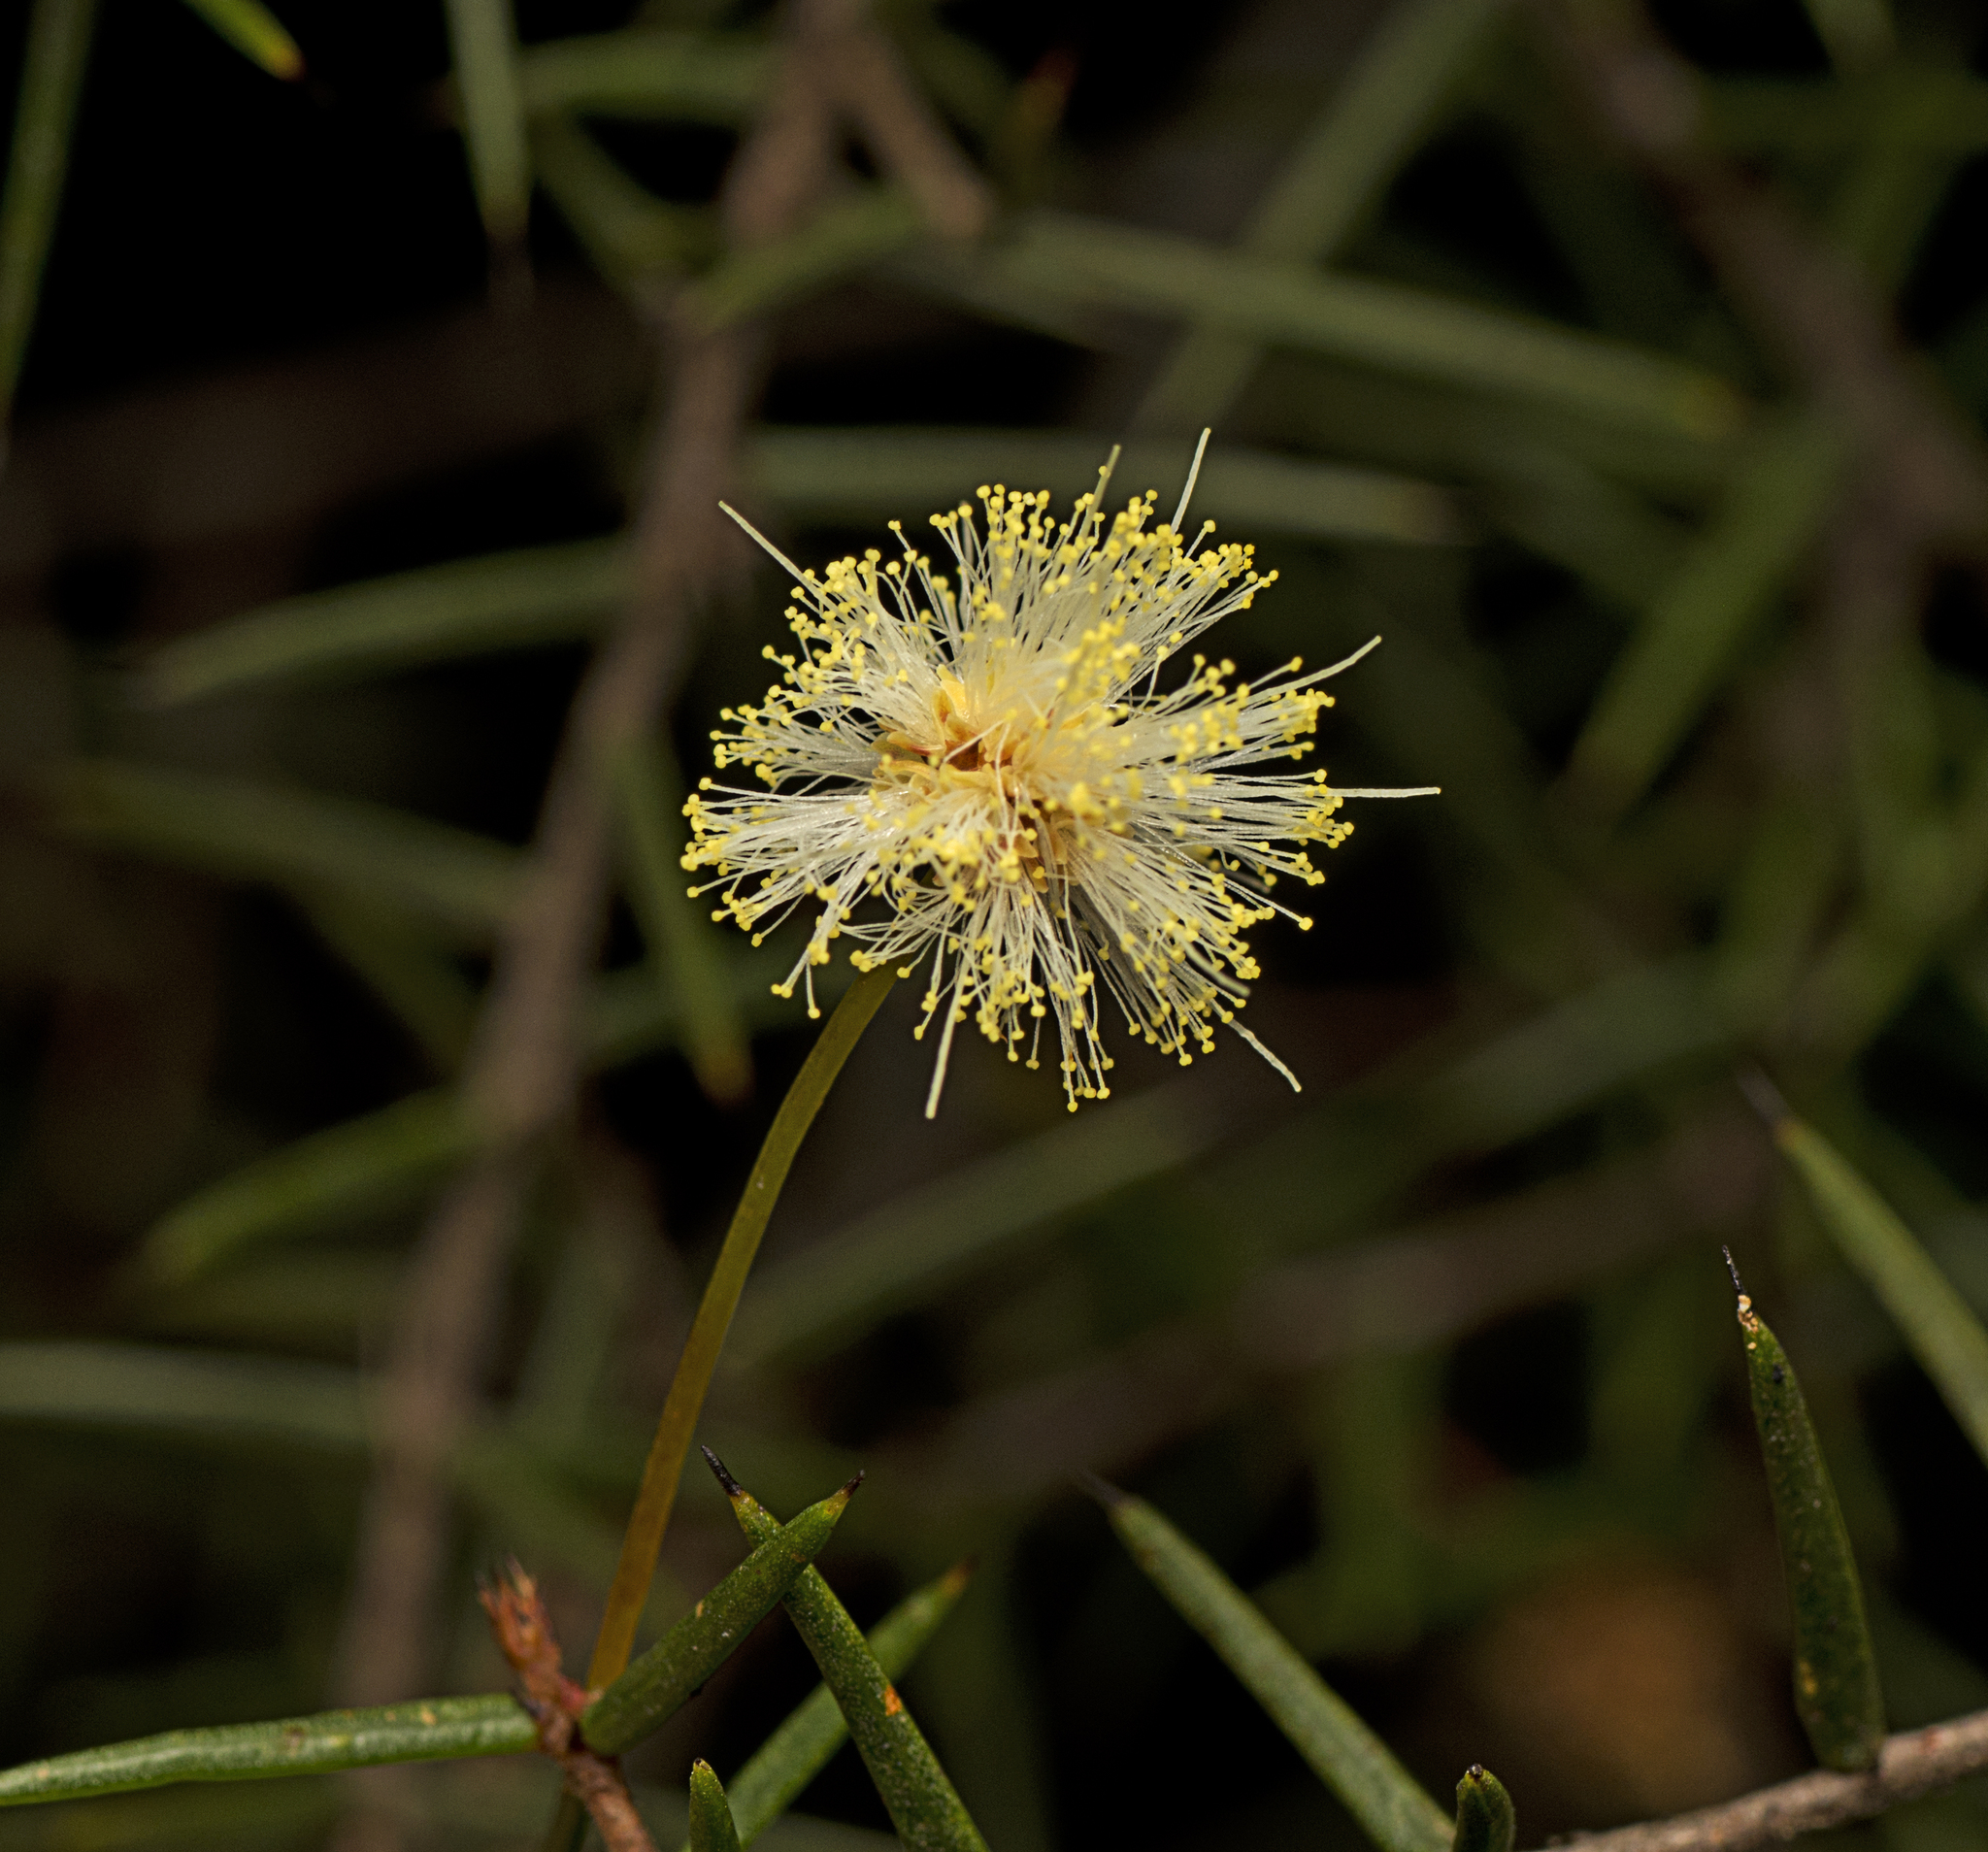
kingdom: Plantae
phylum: Tracheophyta
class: Magnoliopsida
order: Fabales
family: Fabaceae
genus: Acacia
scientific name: Acacia ulicifolia
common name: Juniper wattle
